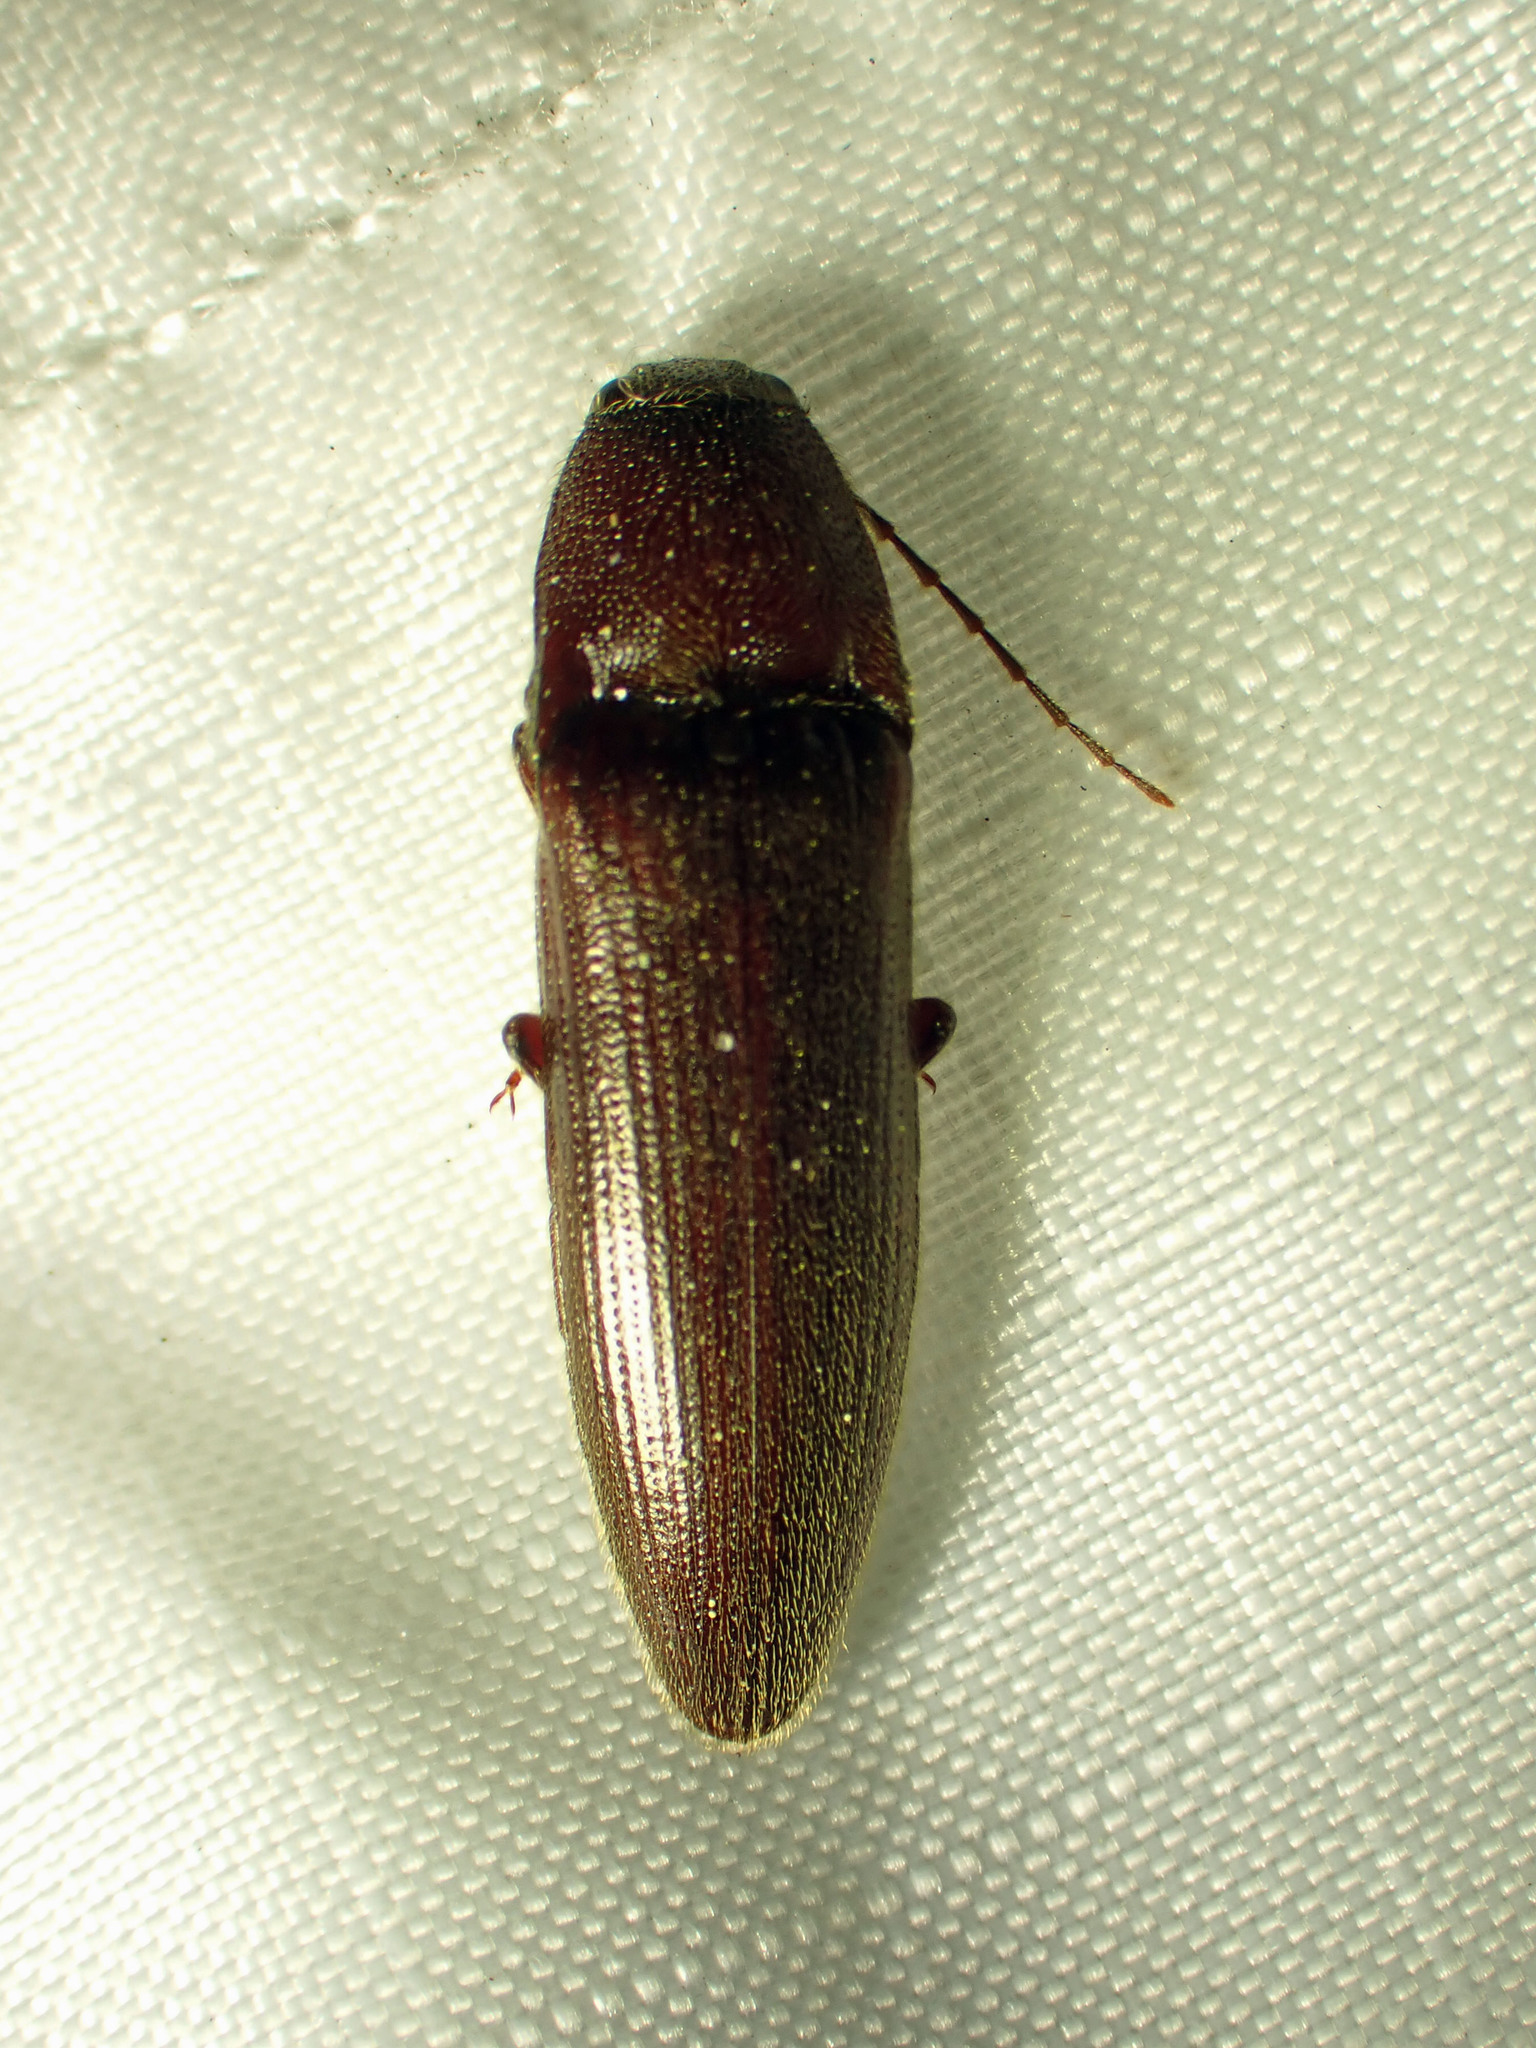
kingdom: Animalia
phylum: Arthropoda
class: Insecta
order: Coleoptera
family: Elateridae
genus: Melanotus
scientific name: Melanotus castanipes
